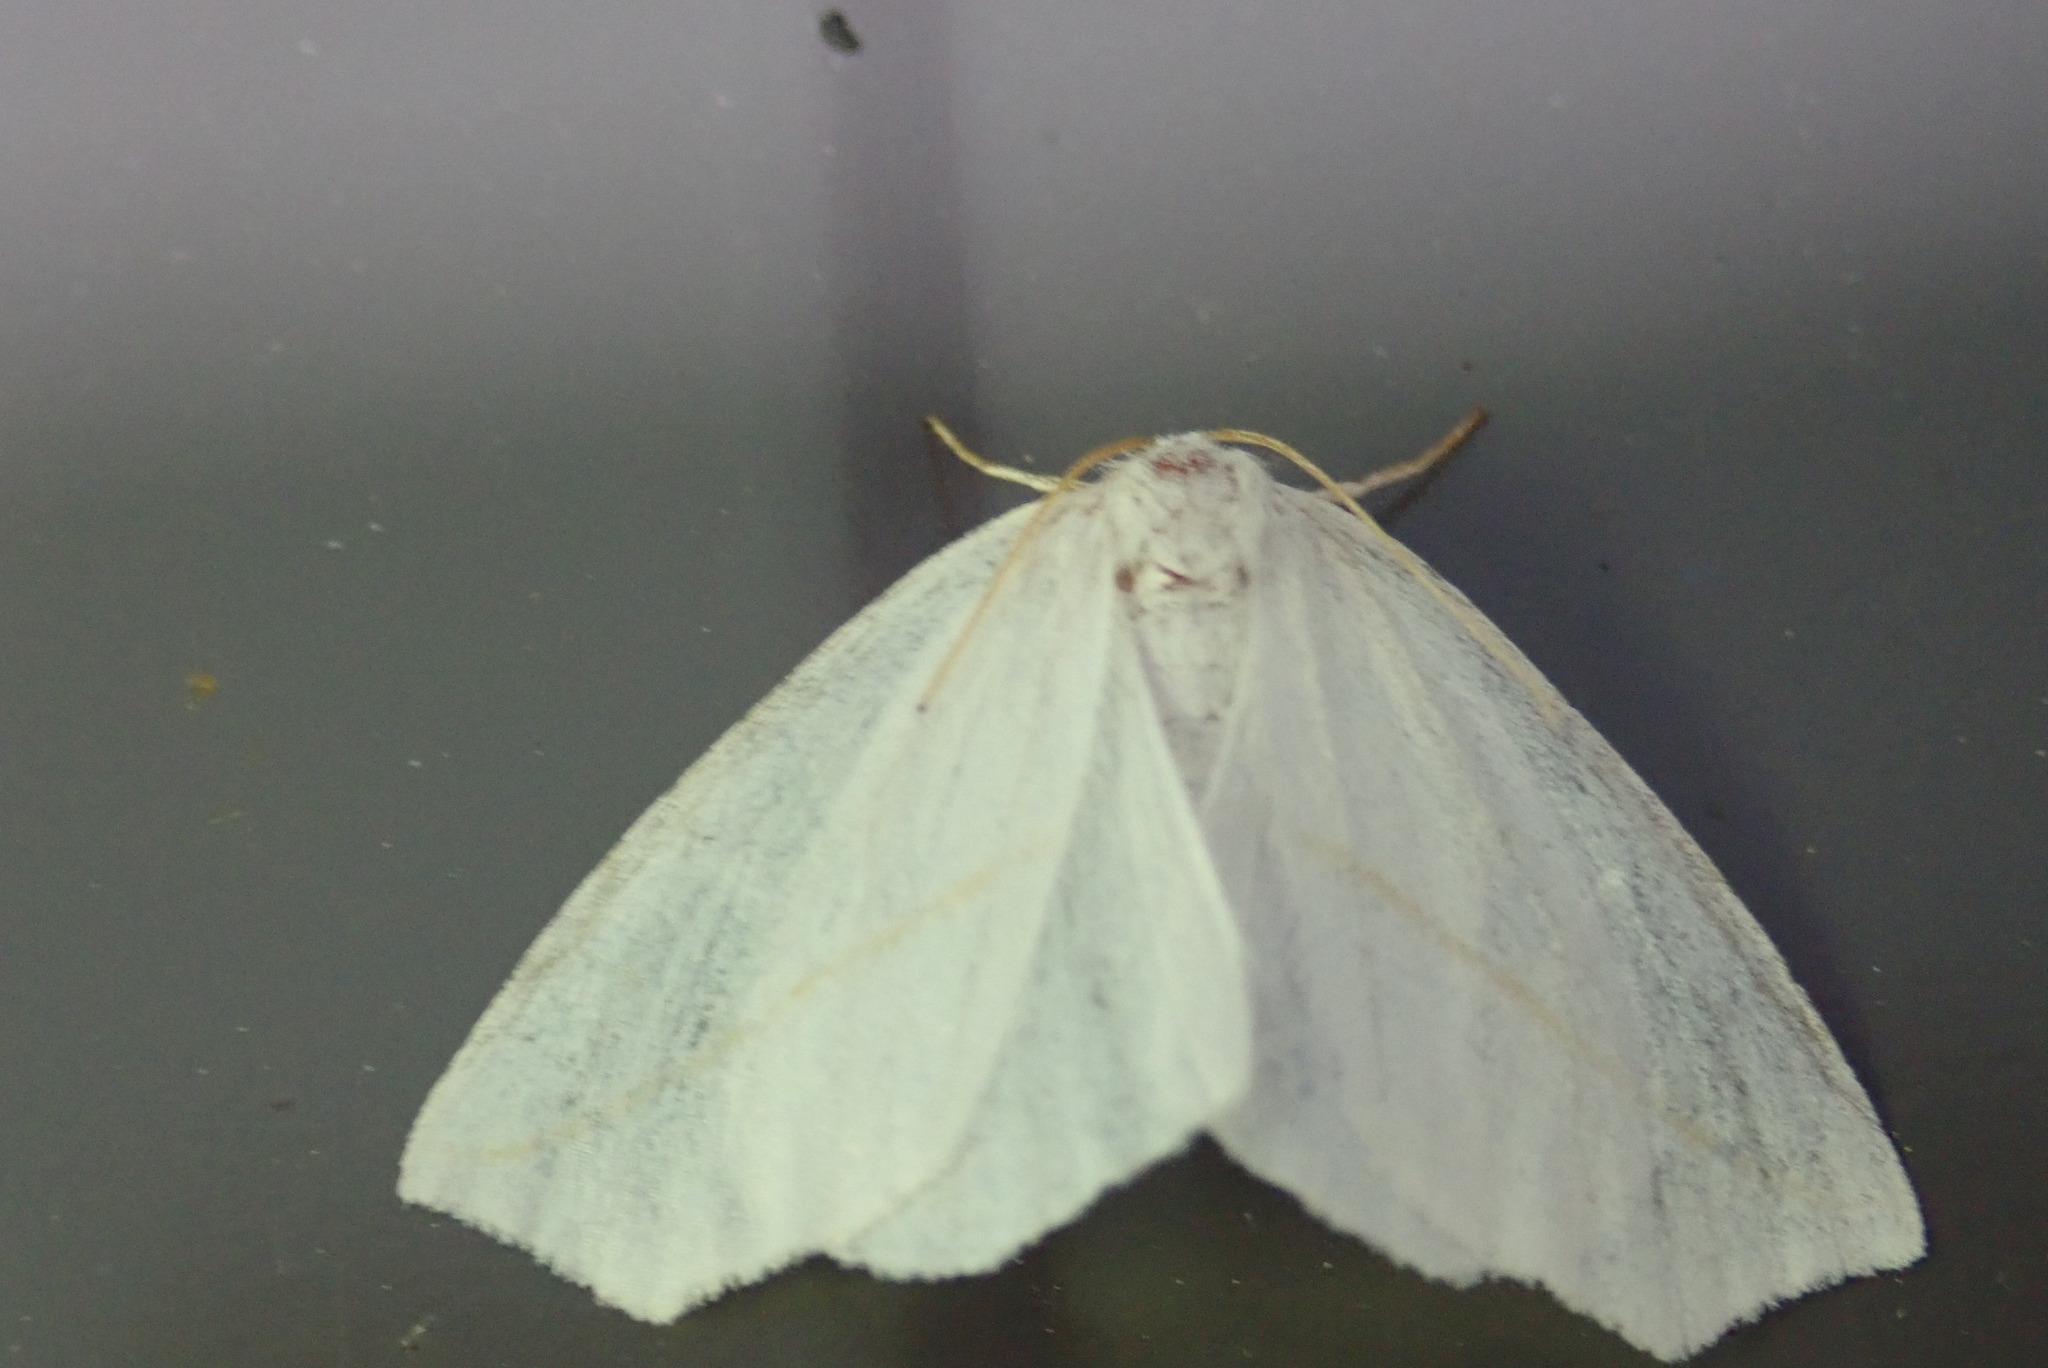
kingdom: Animalia
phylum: Arthropoda
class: Insecta
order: Lepidoptera
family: Geometridae
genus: Tetracis
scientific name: Tetracis cachexiata
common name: White slant-line
